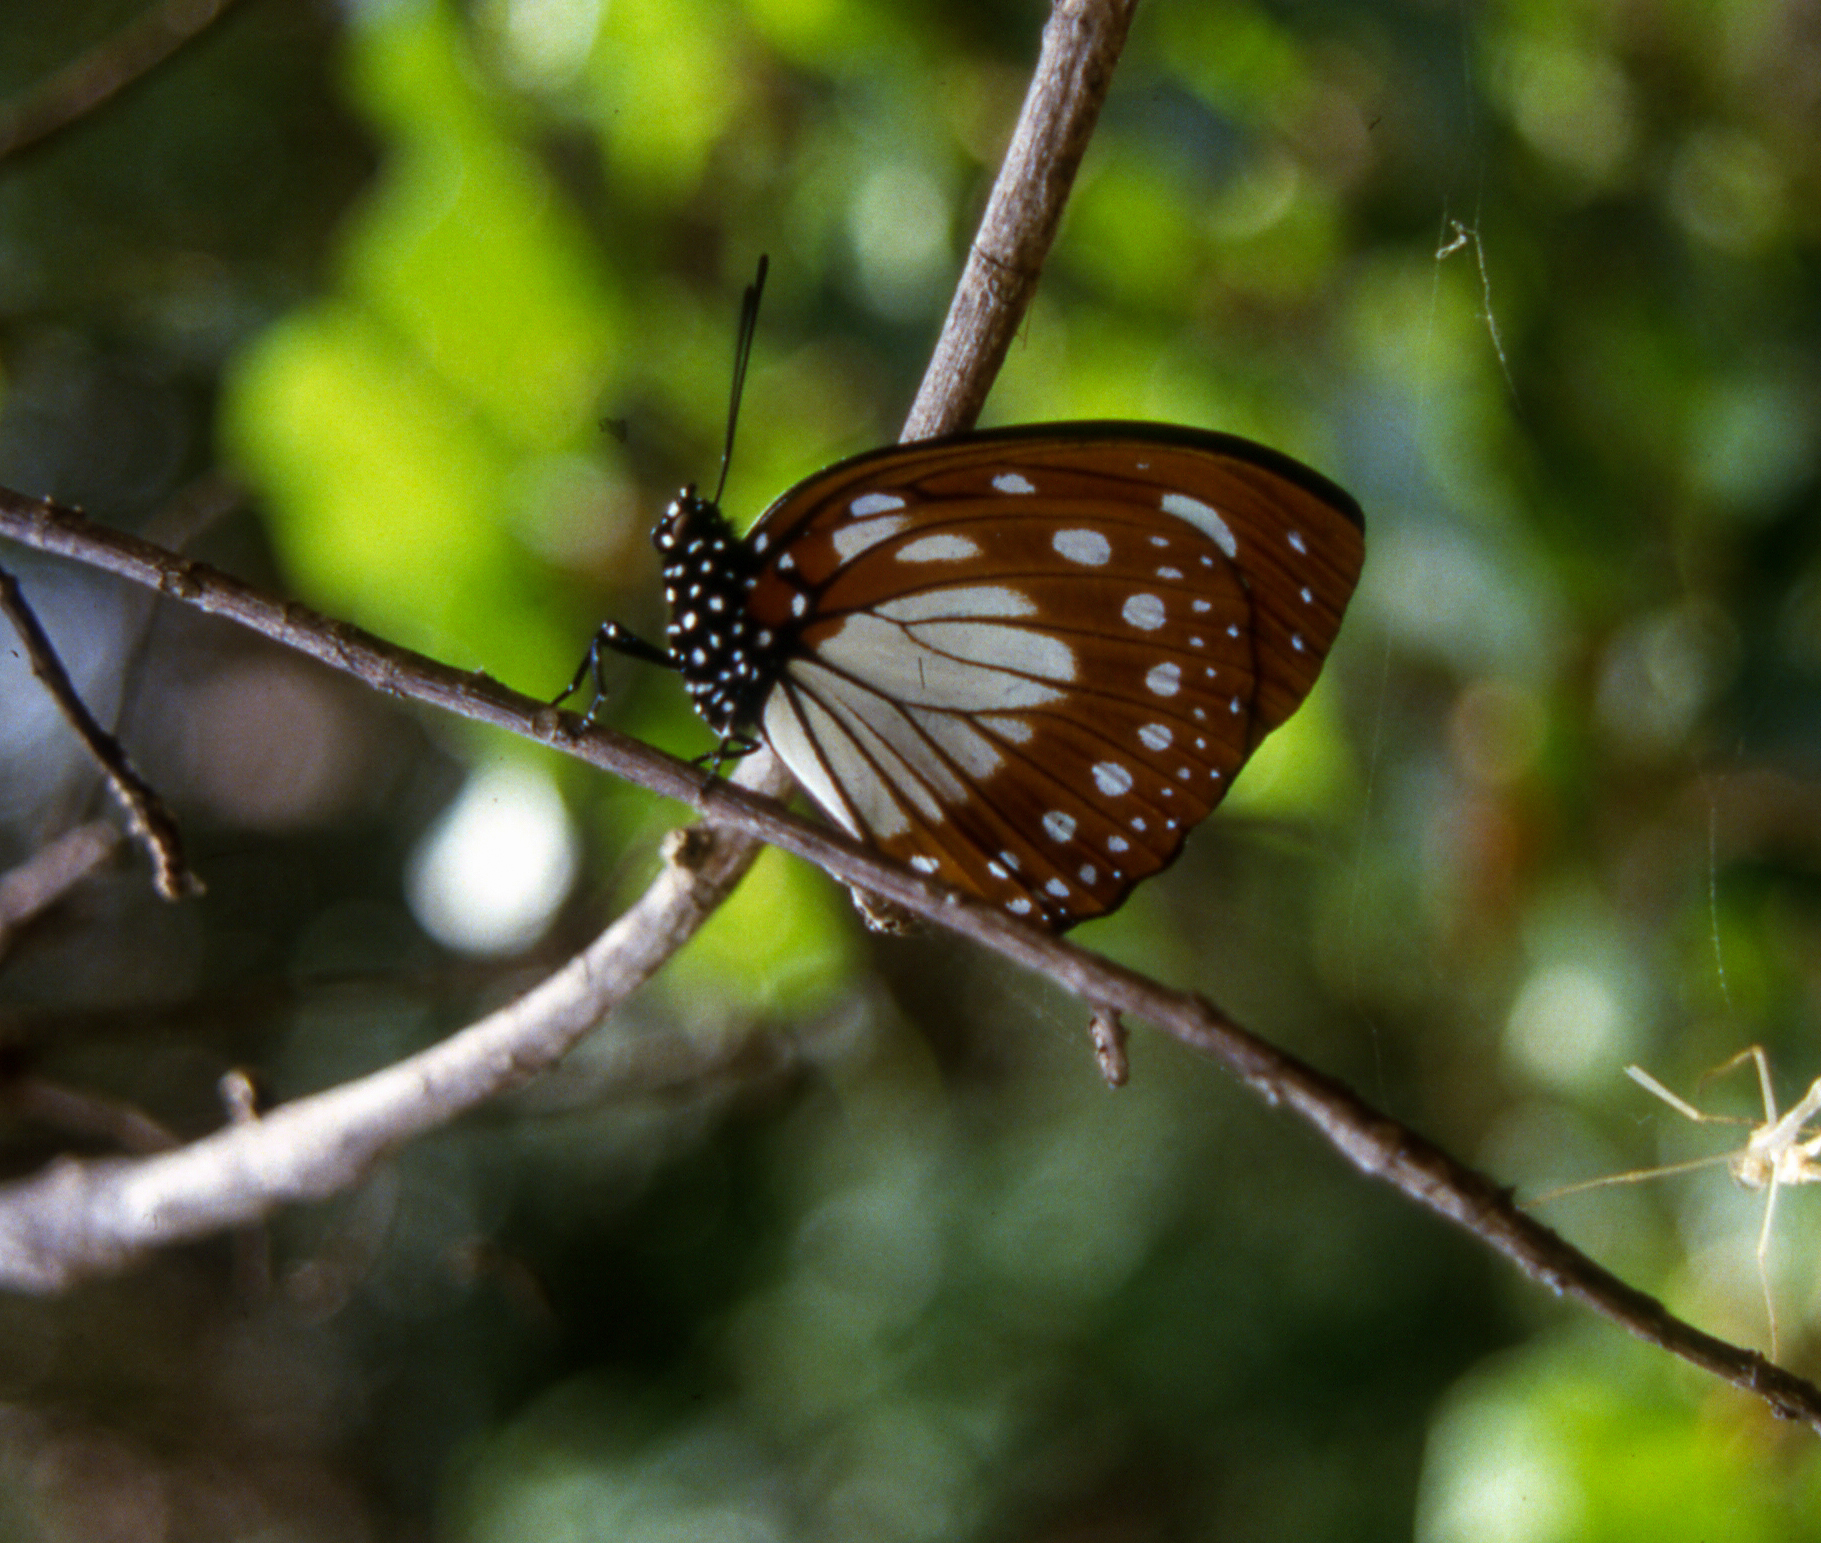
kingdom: Animalia
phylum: Arthropoda
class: Insecta
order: Lepidoptera
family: Nymphalidae
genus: Charaxes
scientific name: Charaxes wakefieldi
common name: Forest queen
